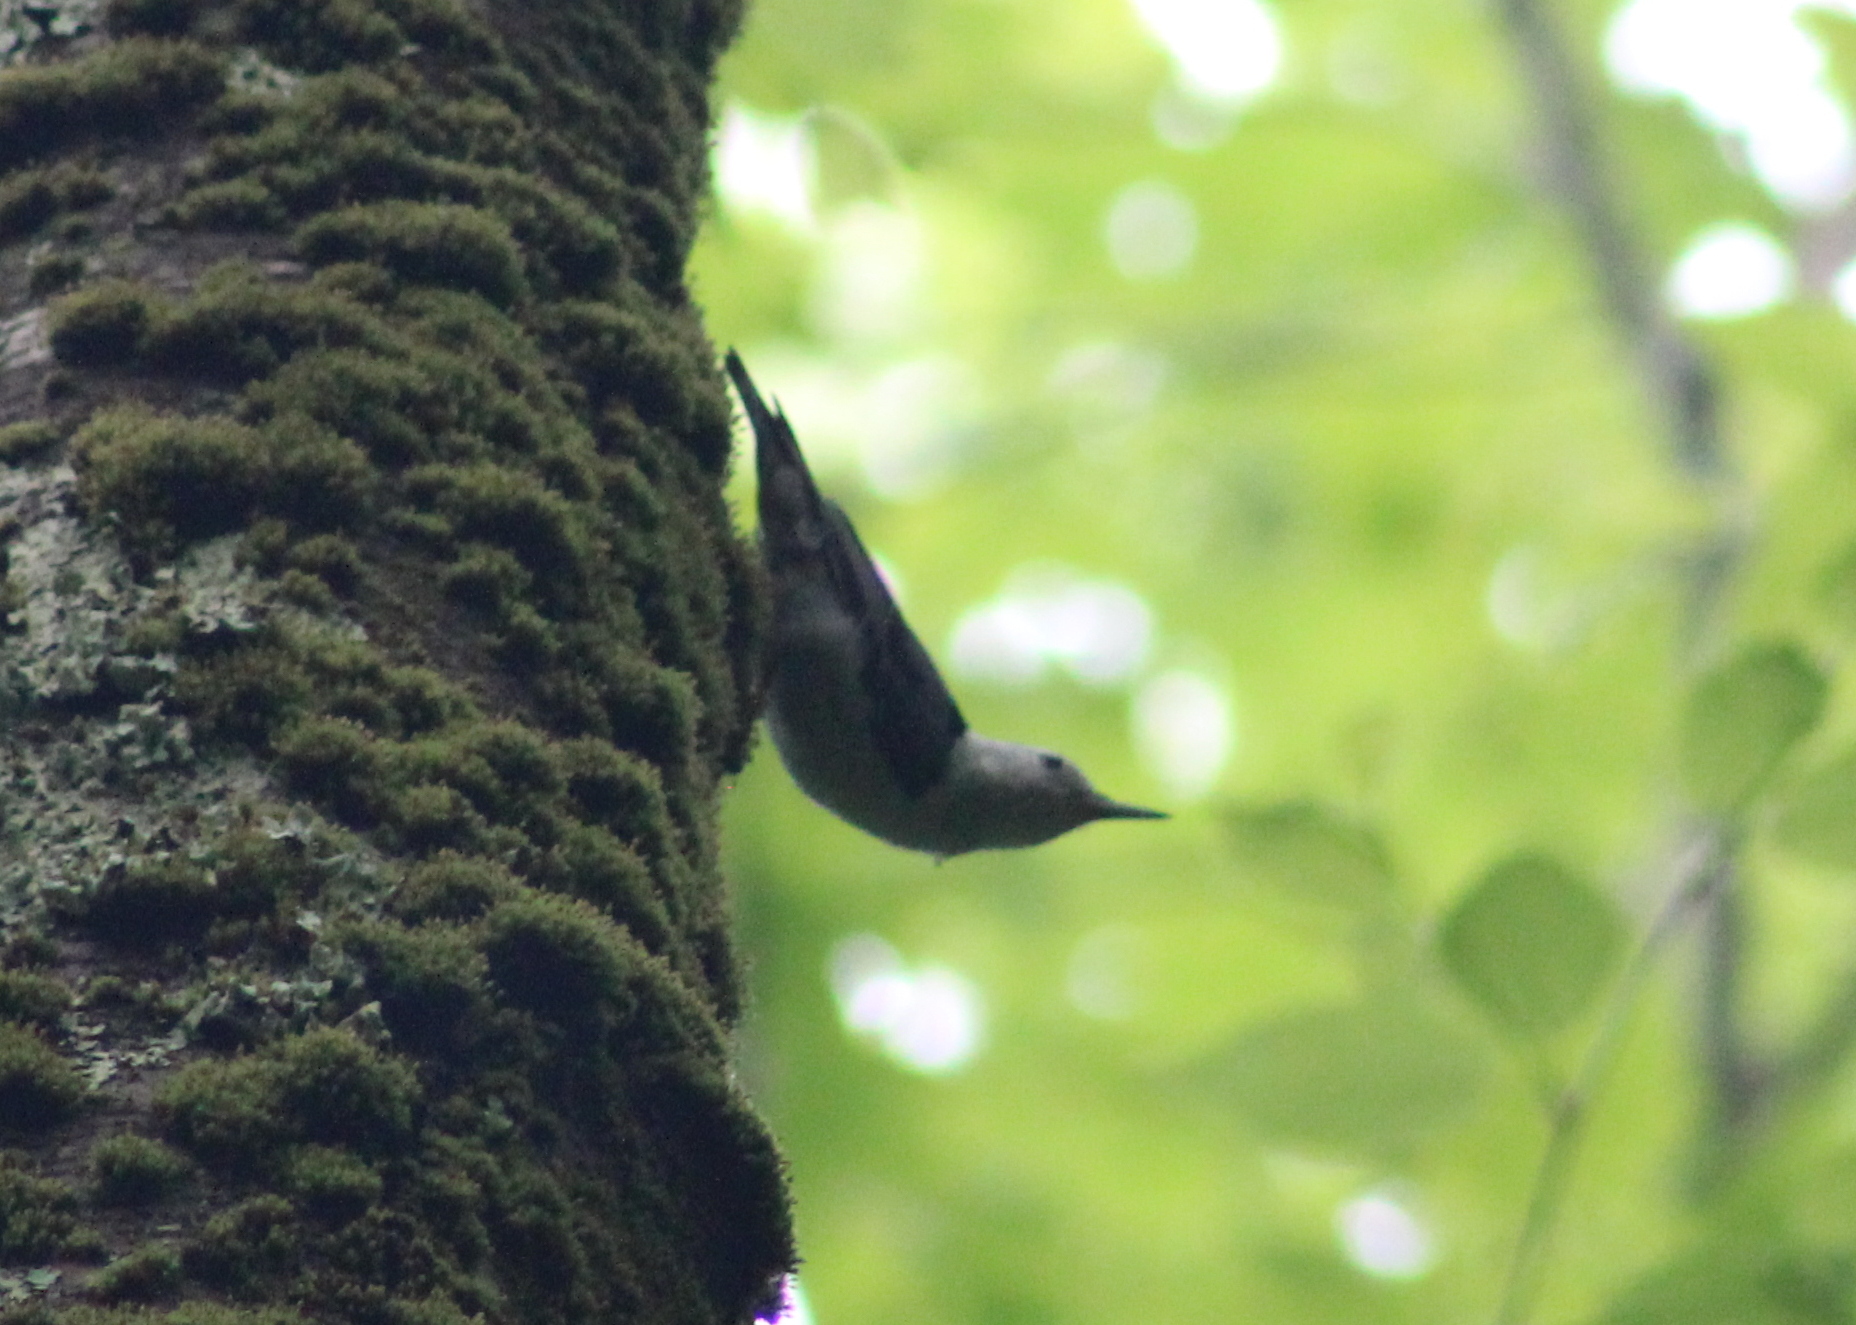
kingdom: Animalia
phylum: Chordata
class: Aves
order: Passeriformes
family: Sittidae
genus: Sitta
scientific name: Sitta carolinensis
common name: White-breasted nuthatch
